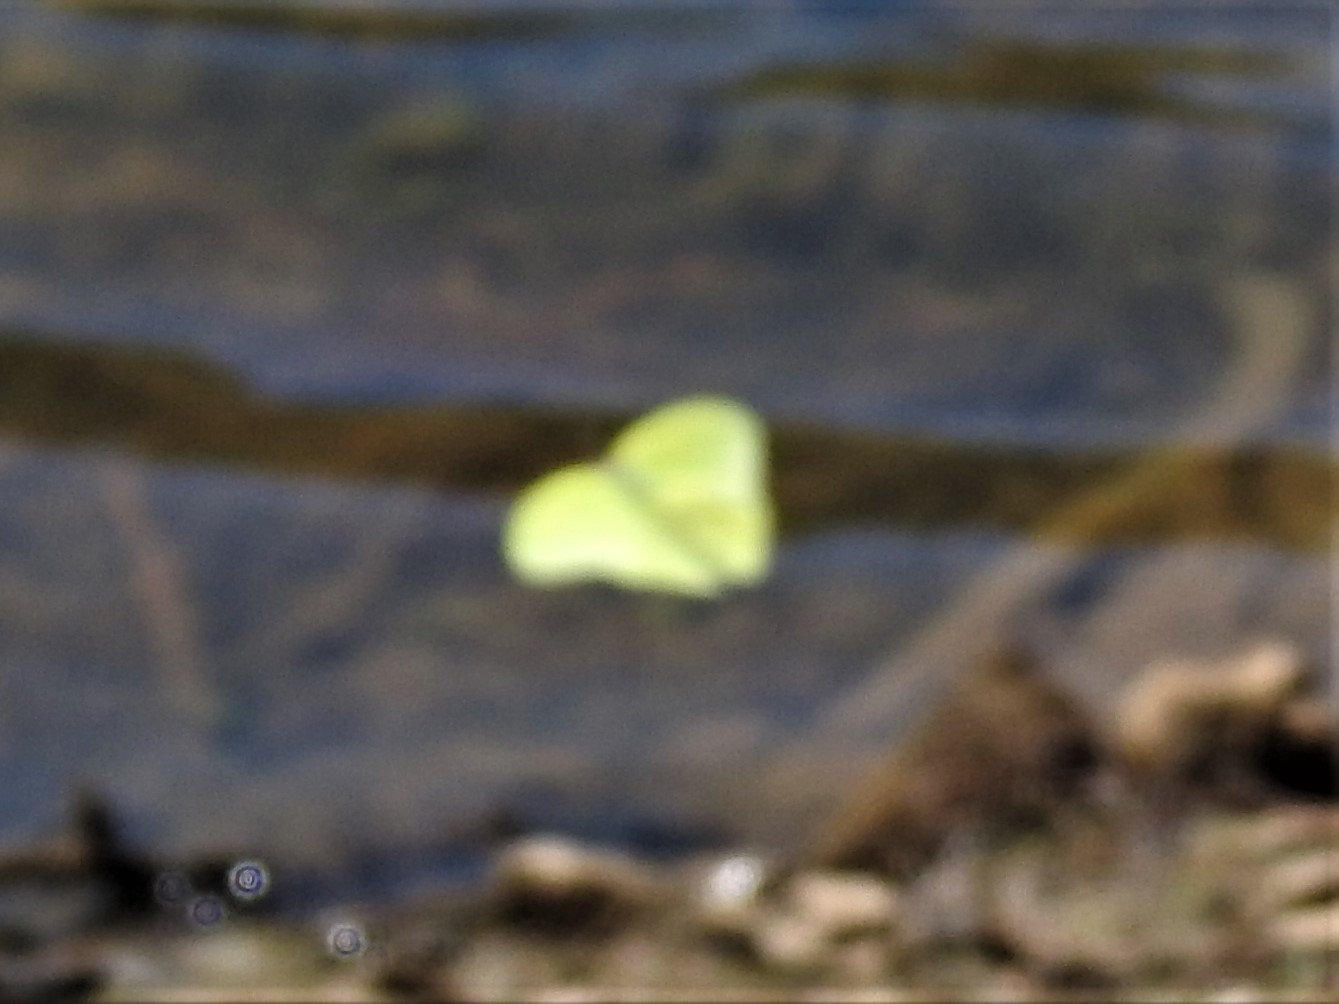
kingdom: Animalia
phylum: Arthropoda
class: Insecta
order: Lepidoptera
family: Pieridae
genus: Phoebis
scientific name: Phoebis sennae
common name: Cloudless sulphur
